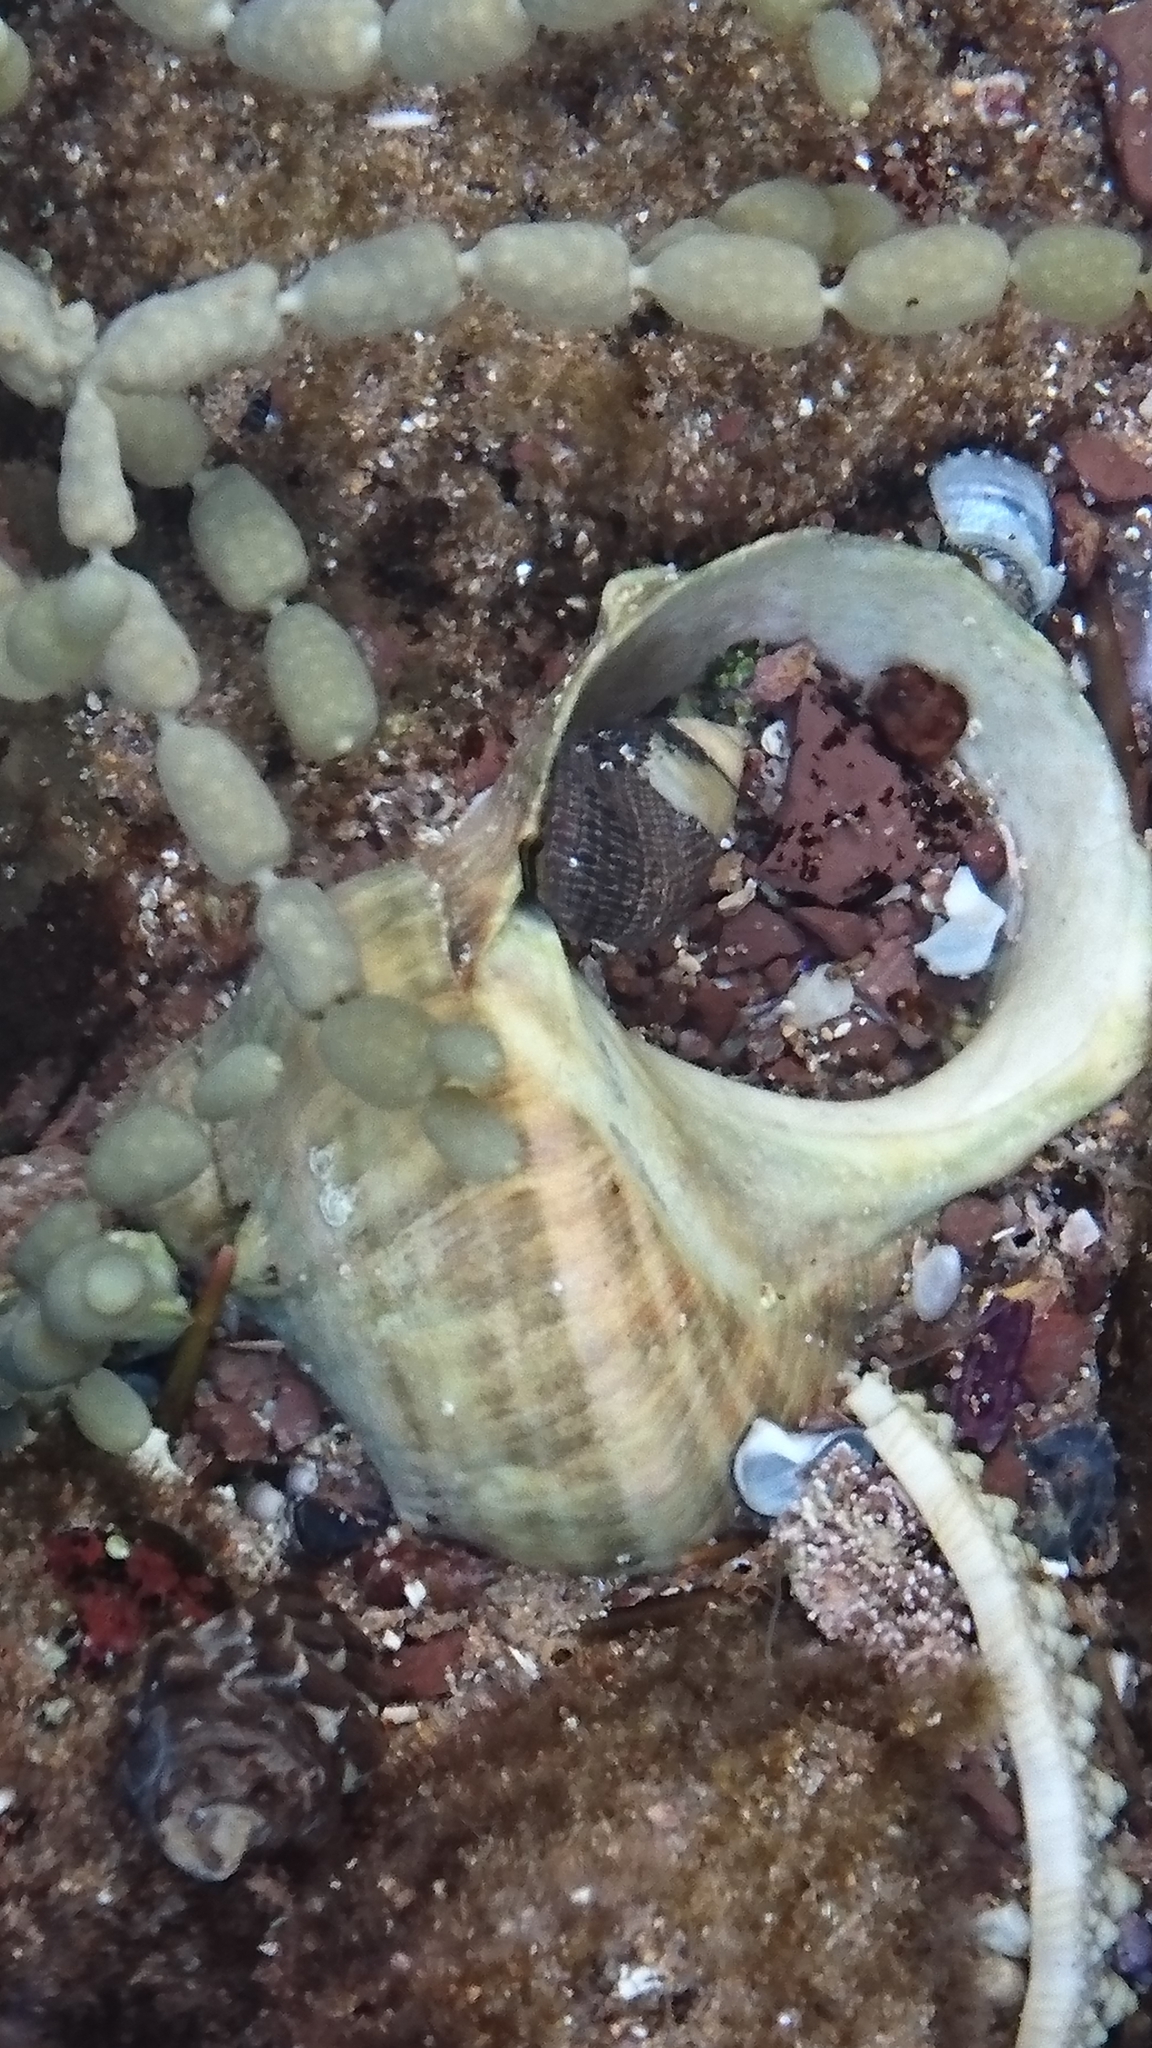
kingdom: Animalia
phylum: Mollusca
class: Gastropoda
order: Trochida
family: Turbinidae
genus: Turbo
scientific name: Turbo militaris
